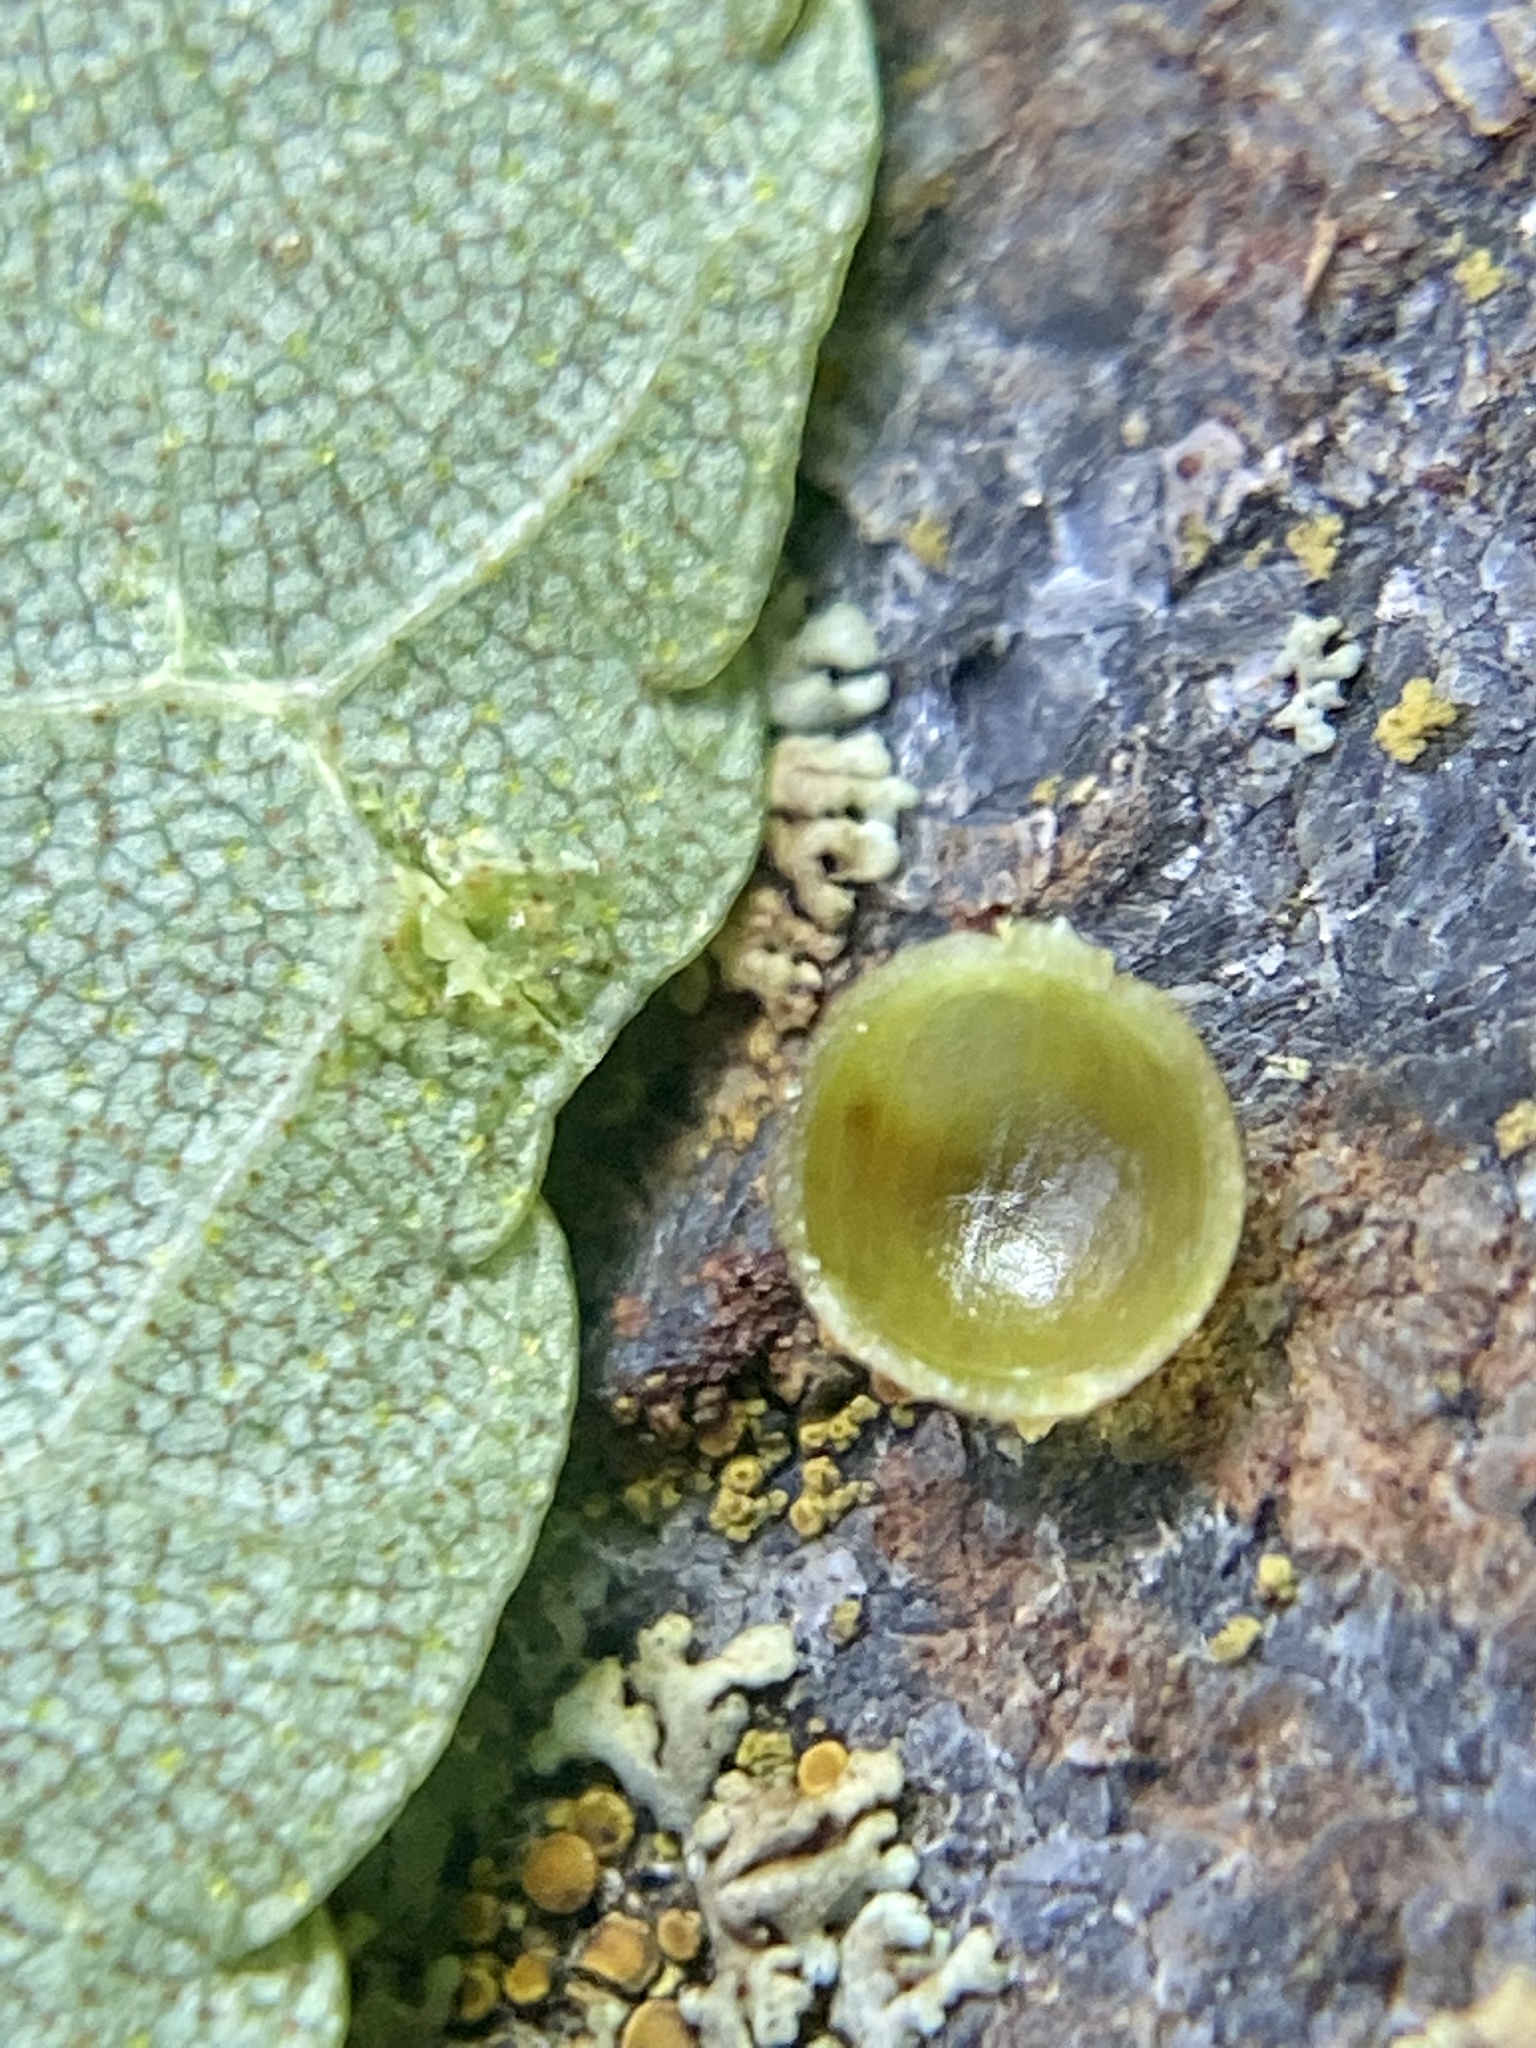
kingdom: Animalia
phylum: Arthropoda
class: Insecta
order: Diptera
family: Cecidomyiidae
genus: Caryomyia
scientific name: Caryomyia leviglobus
